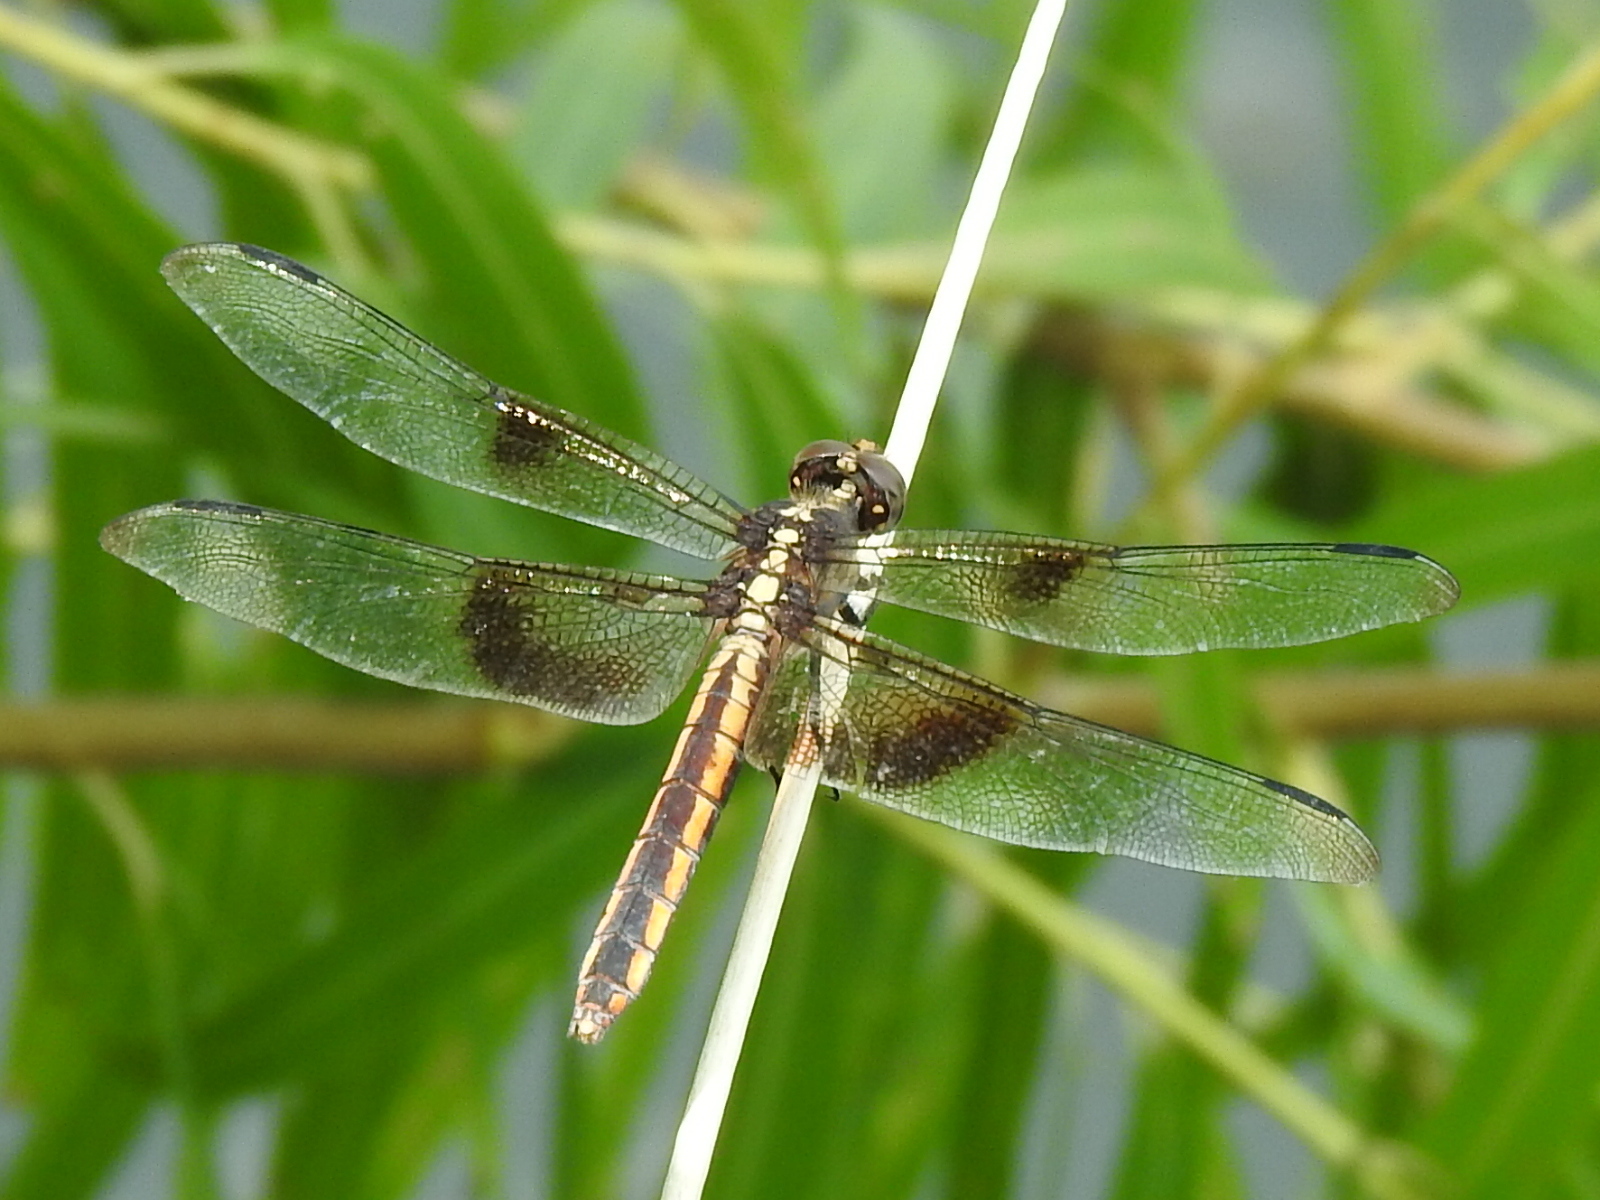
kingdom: Animalia
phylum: Arthropoda
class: Insecta
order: Odonata
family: Libellulidae
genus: Libellula
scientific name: Libellula luctuosa
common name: Widow skimmer
